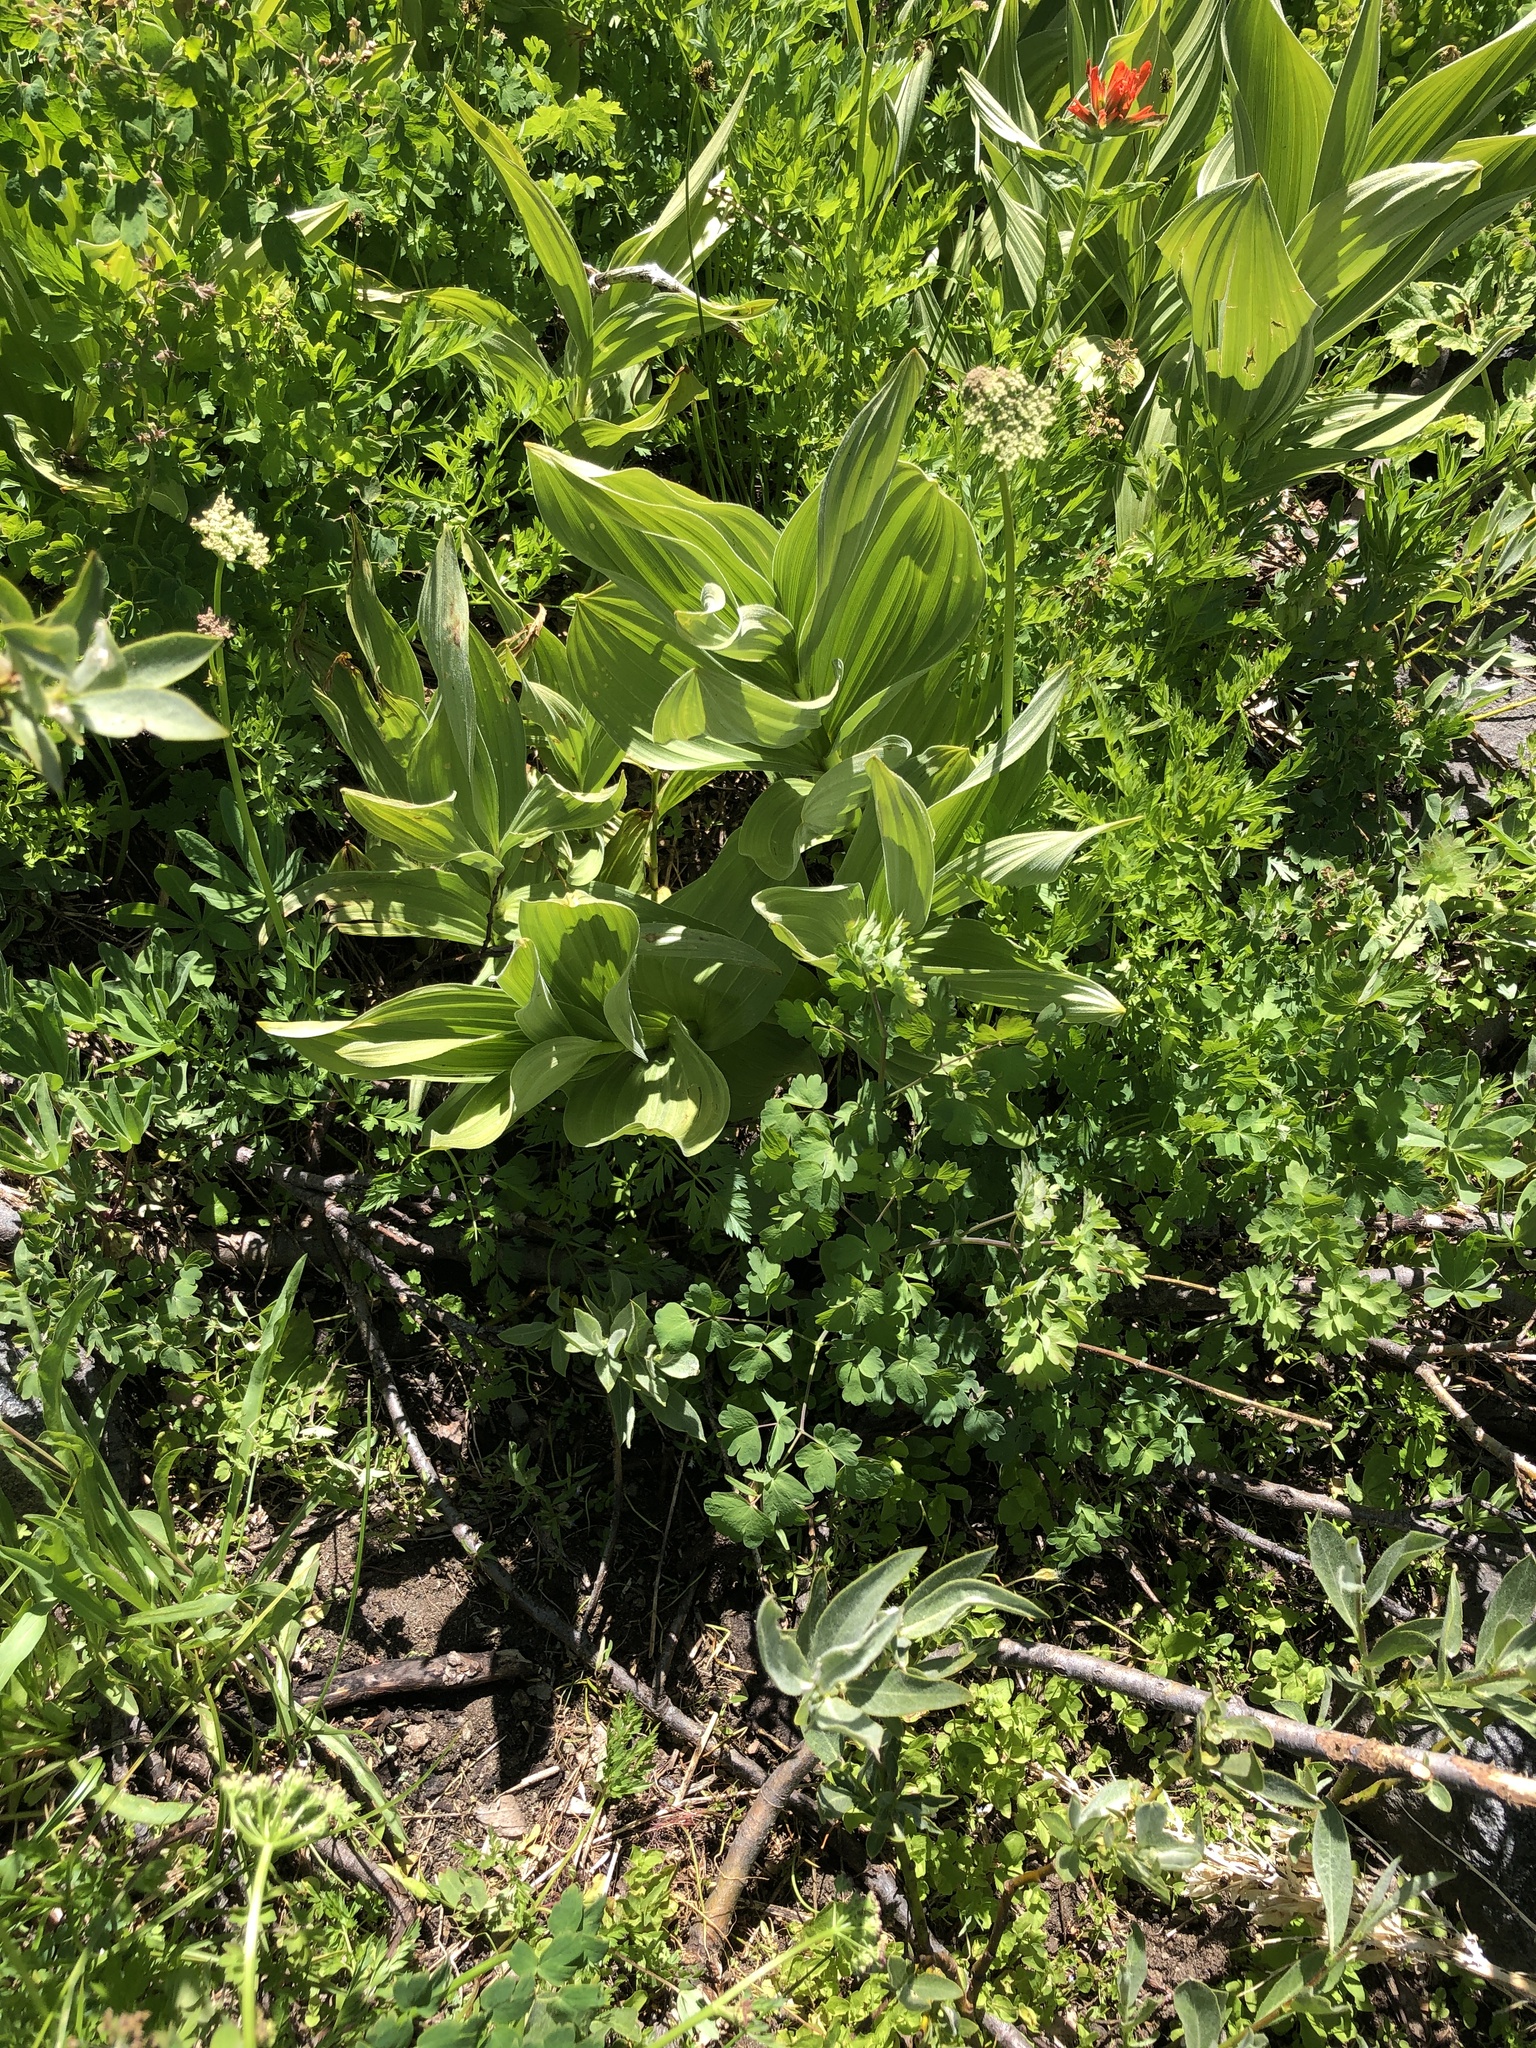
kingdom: Plantae
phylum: Tracheophyta
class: Liliopsida
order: Liliales
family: Melanthiaceae
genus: Veratrum
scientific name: Veratrum californicum
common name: California veratrum
